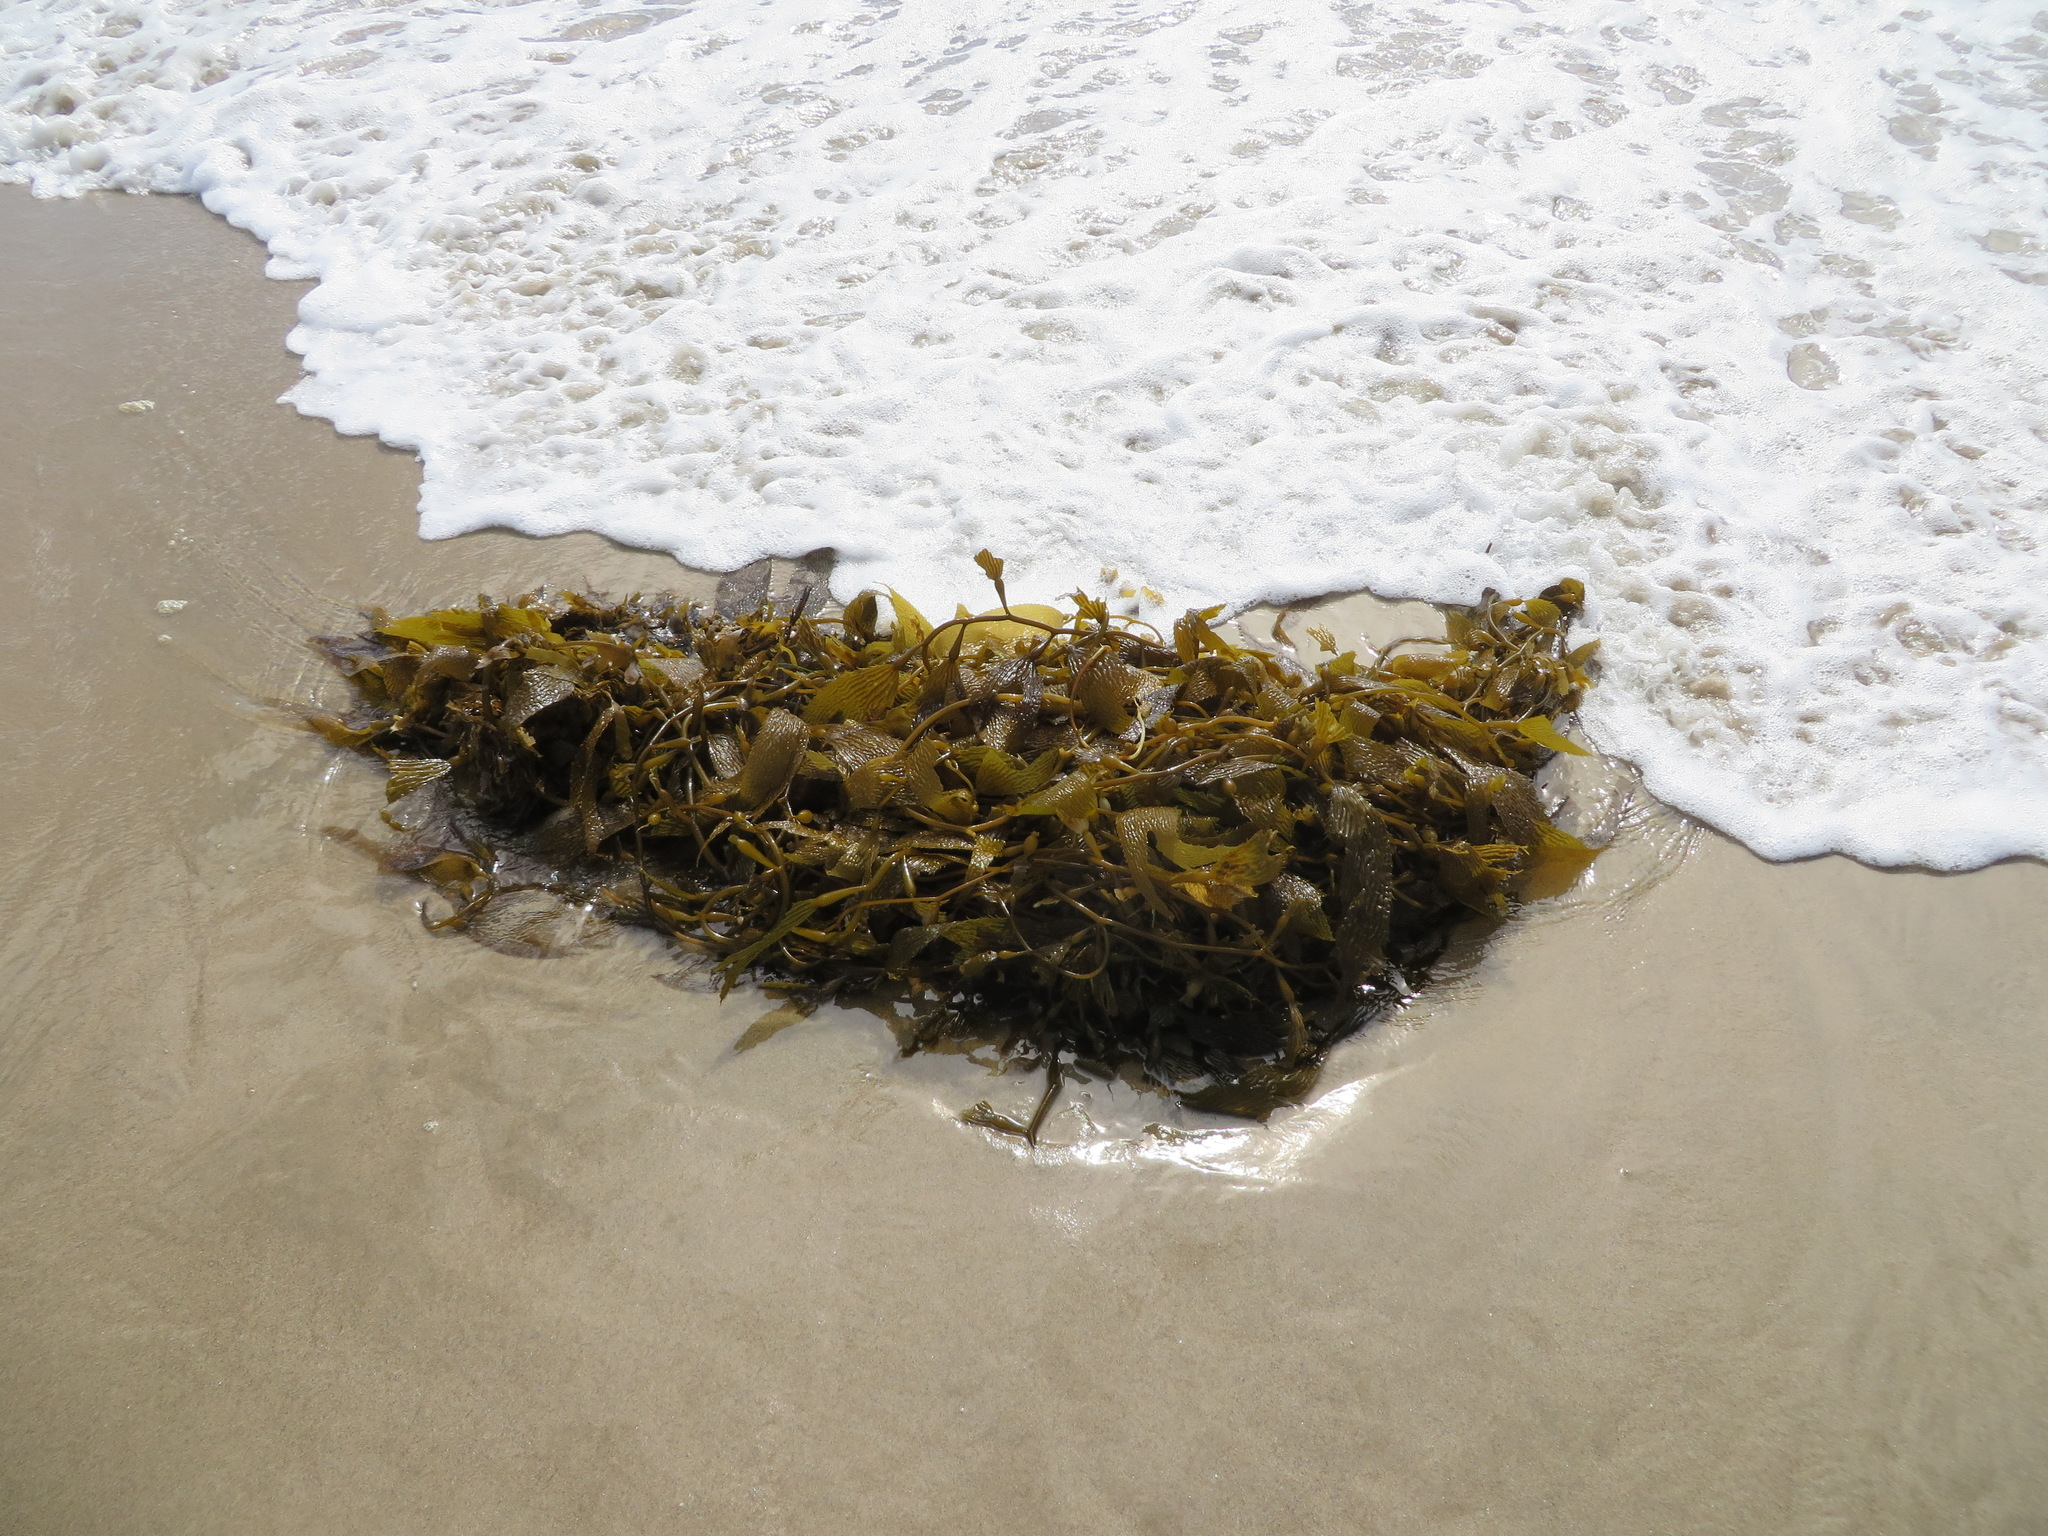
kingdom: Chromista
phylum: Ochrophyta
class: Phaeophyceae
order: Laminariales
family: Laminariaceae
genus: Macrocystis
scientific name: Macrocystis pyrifera
